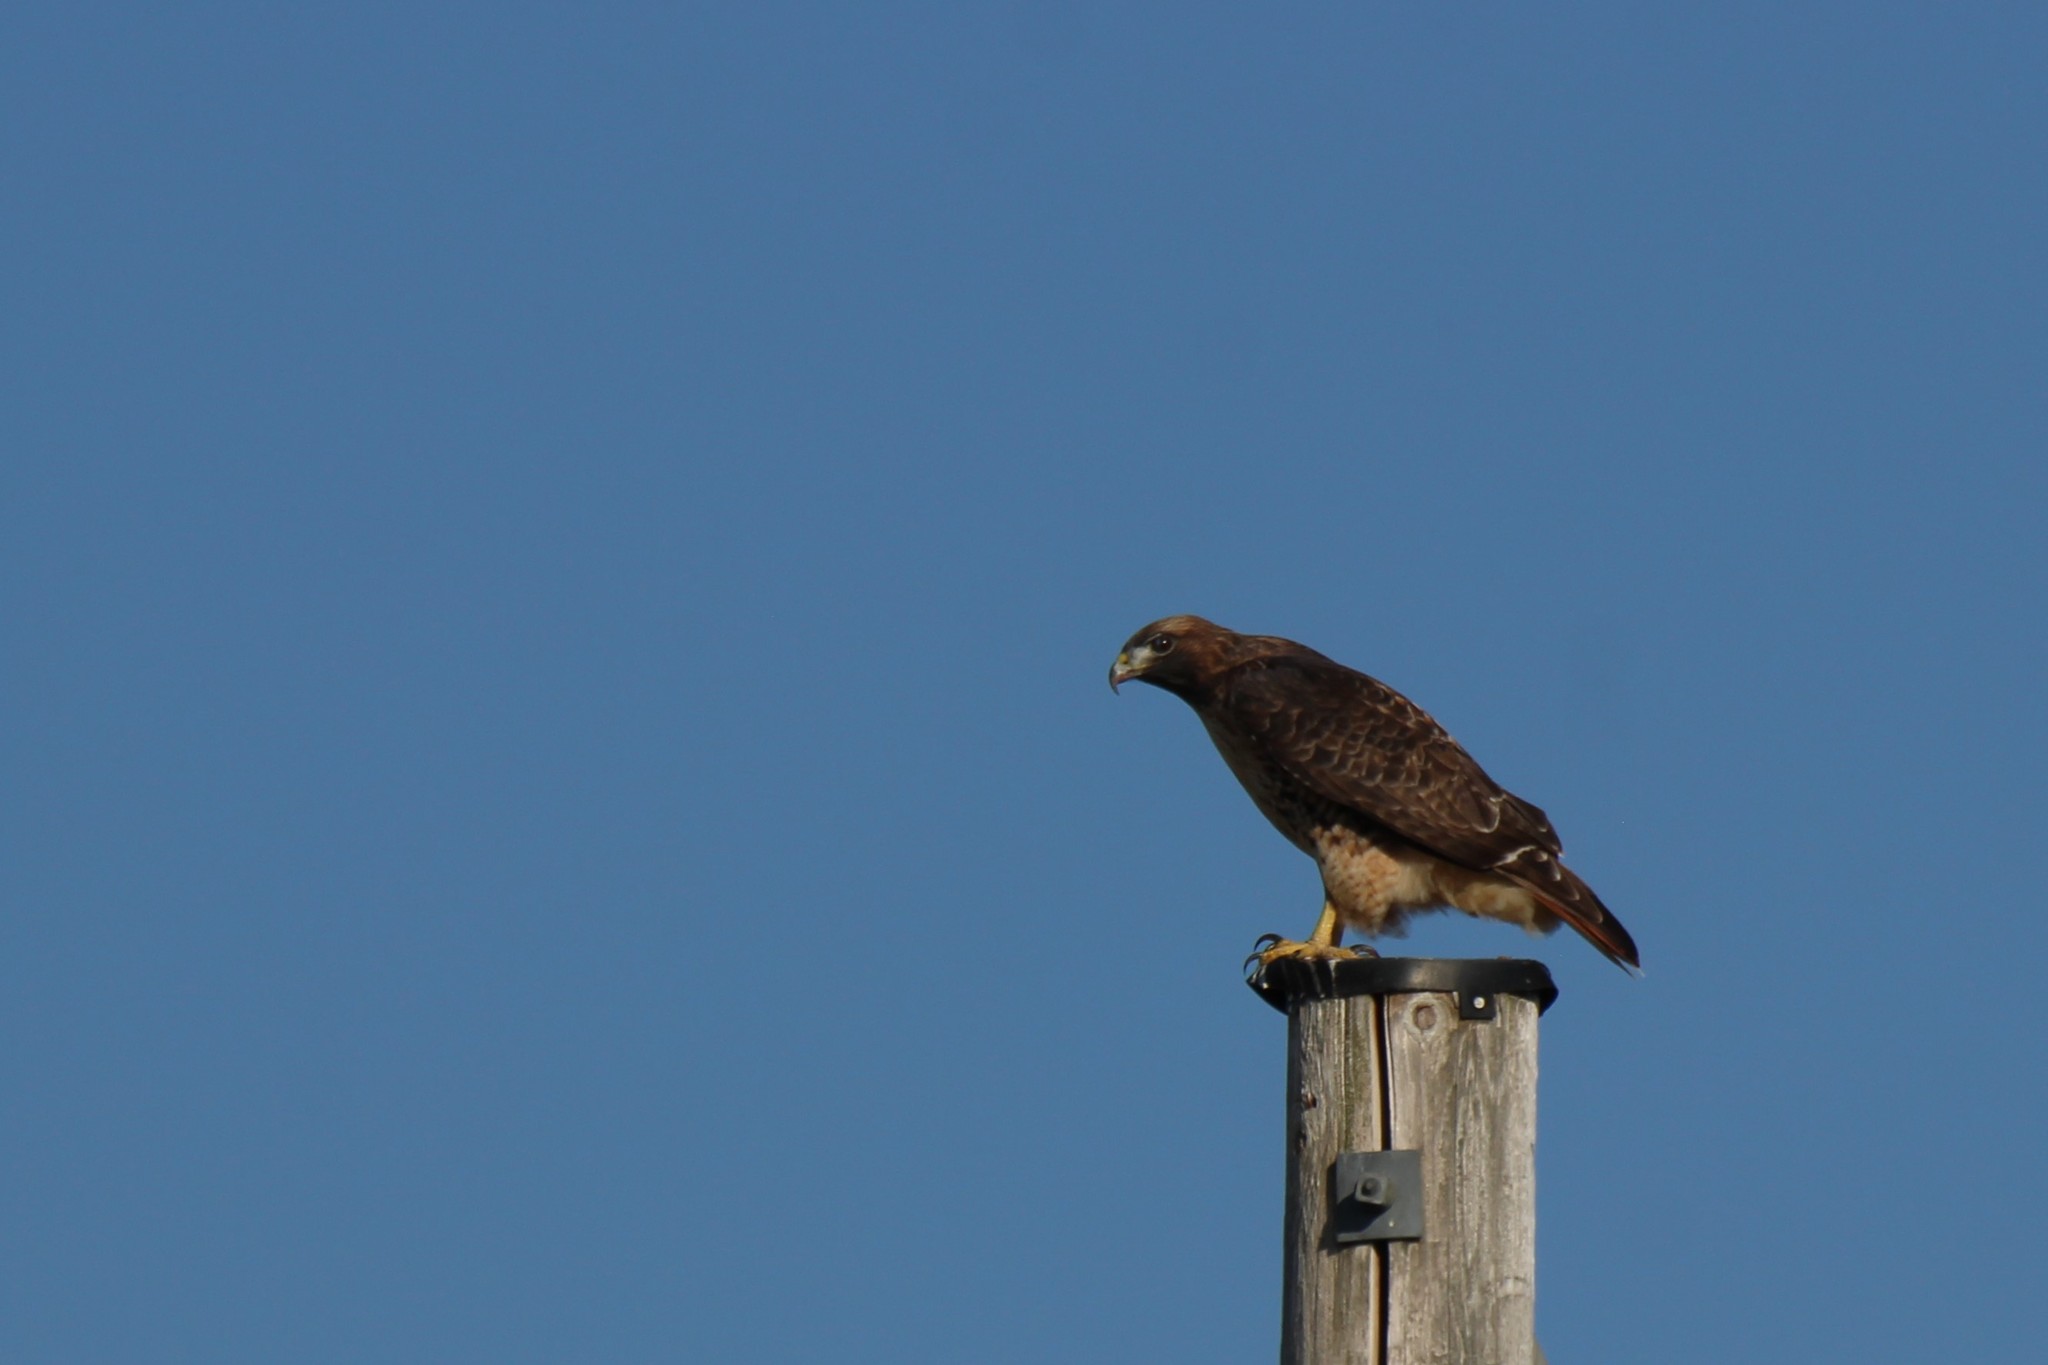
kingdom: Animalia
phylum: Chordata
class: Aves
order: Accipitriformes
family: Accipitridae
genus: Buteo
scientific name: Buteo jamaicensis
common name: Red-tailed hawk
